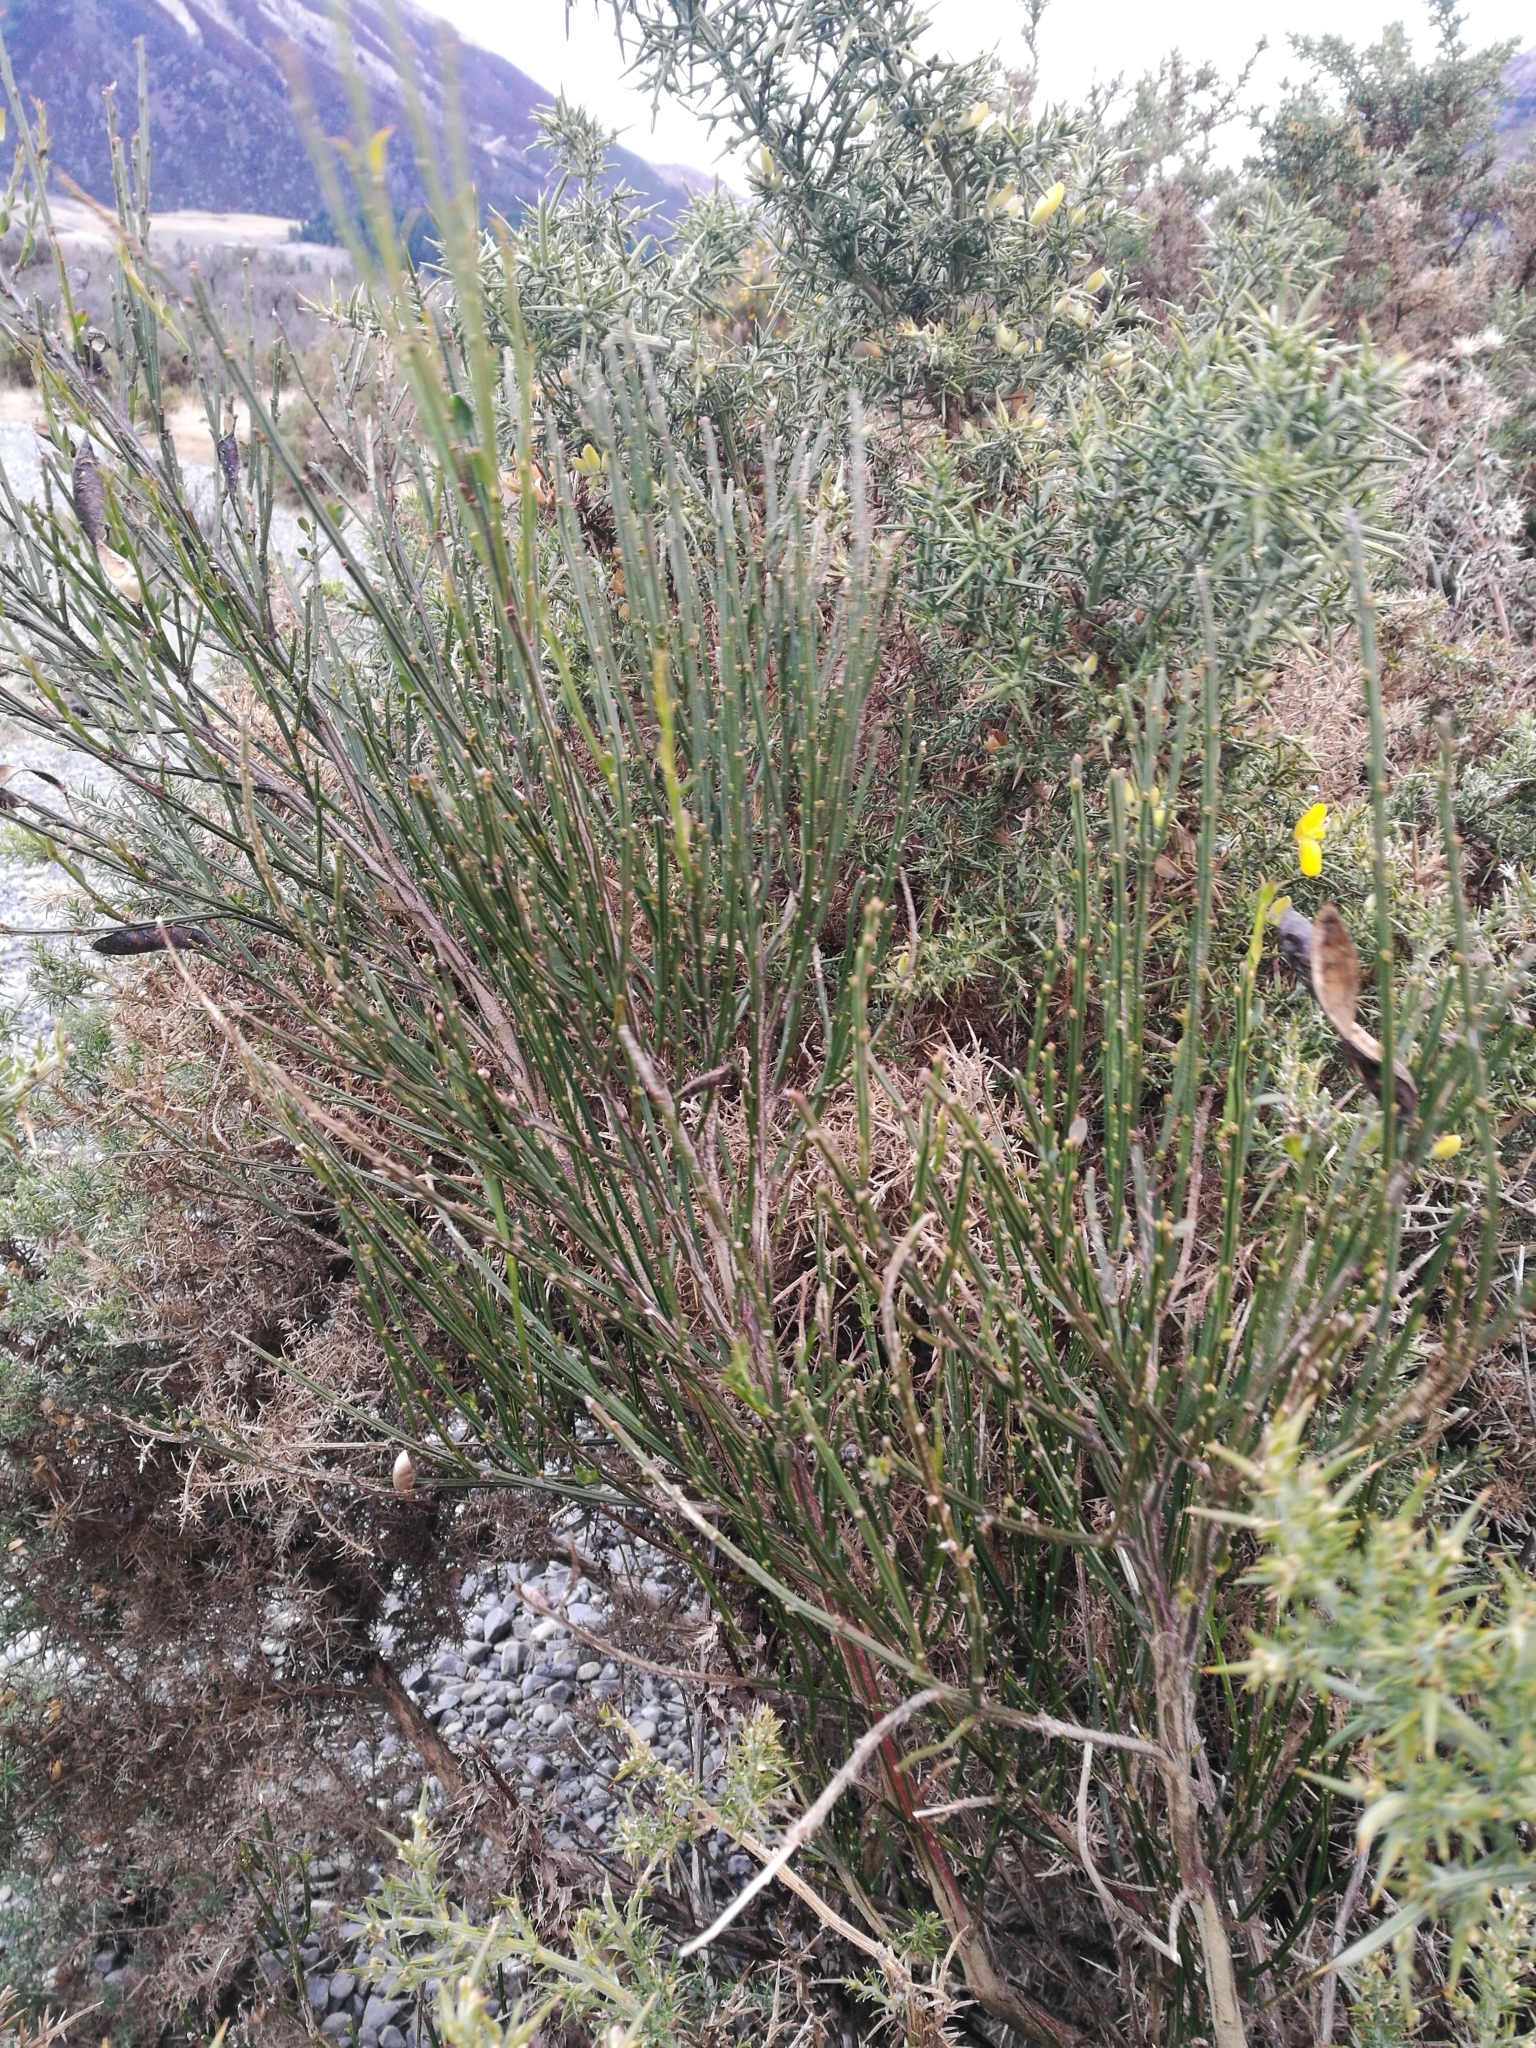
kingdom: Plantae
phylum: Tracheophyta
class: Magnoliopsida
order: Fabales
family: Fabaceae
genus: Cytisus
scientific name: Cytisus scoparius
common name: Scotch broom
